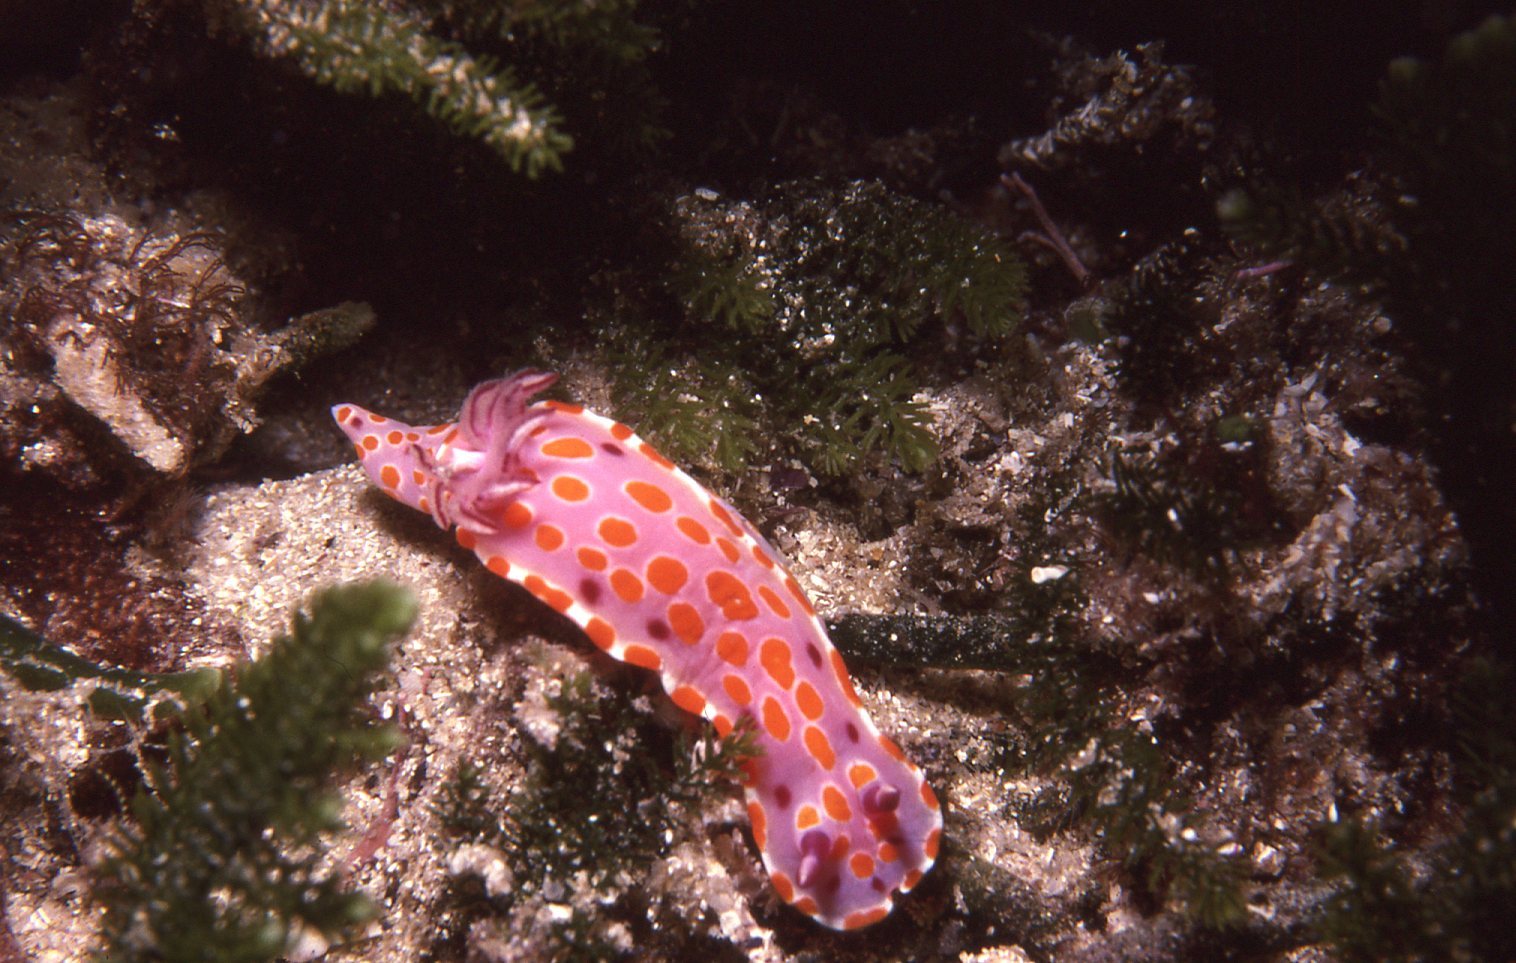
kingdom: Animalia
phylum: Mollusca
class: Gastropoda
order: Nudibranchia
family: Chromodorididae
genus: Ceratosoma
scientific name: Ceratosoma amoenum
